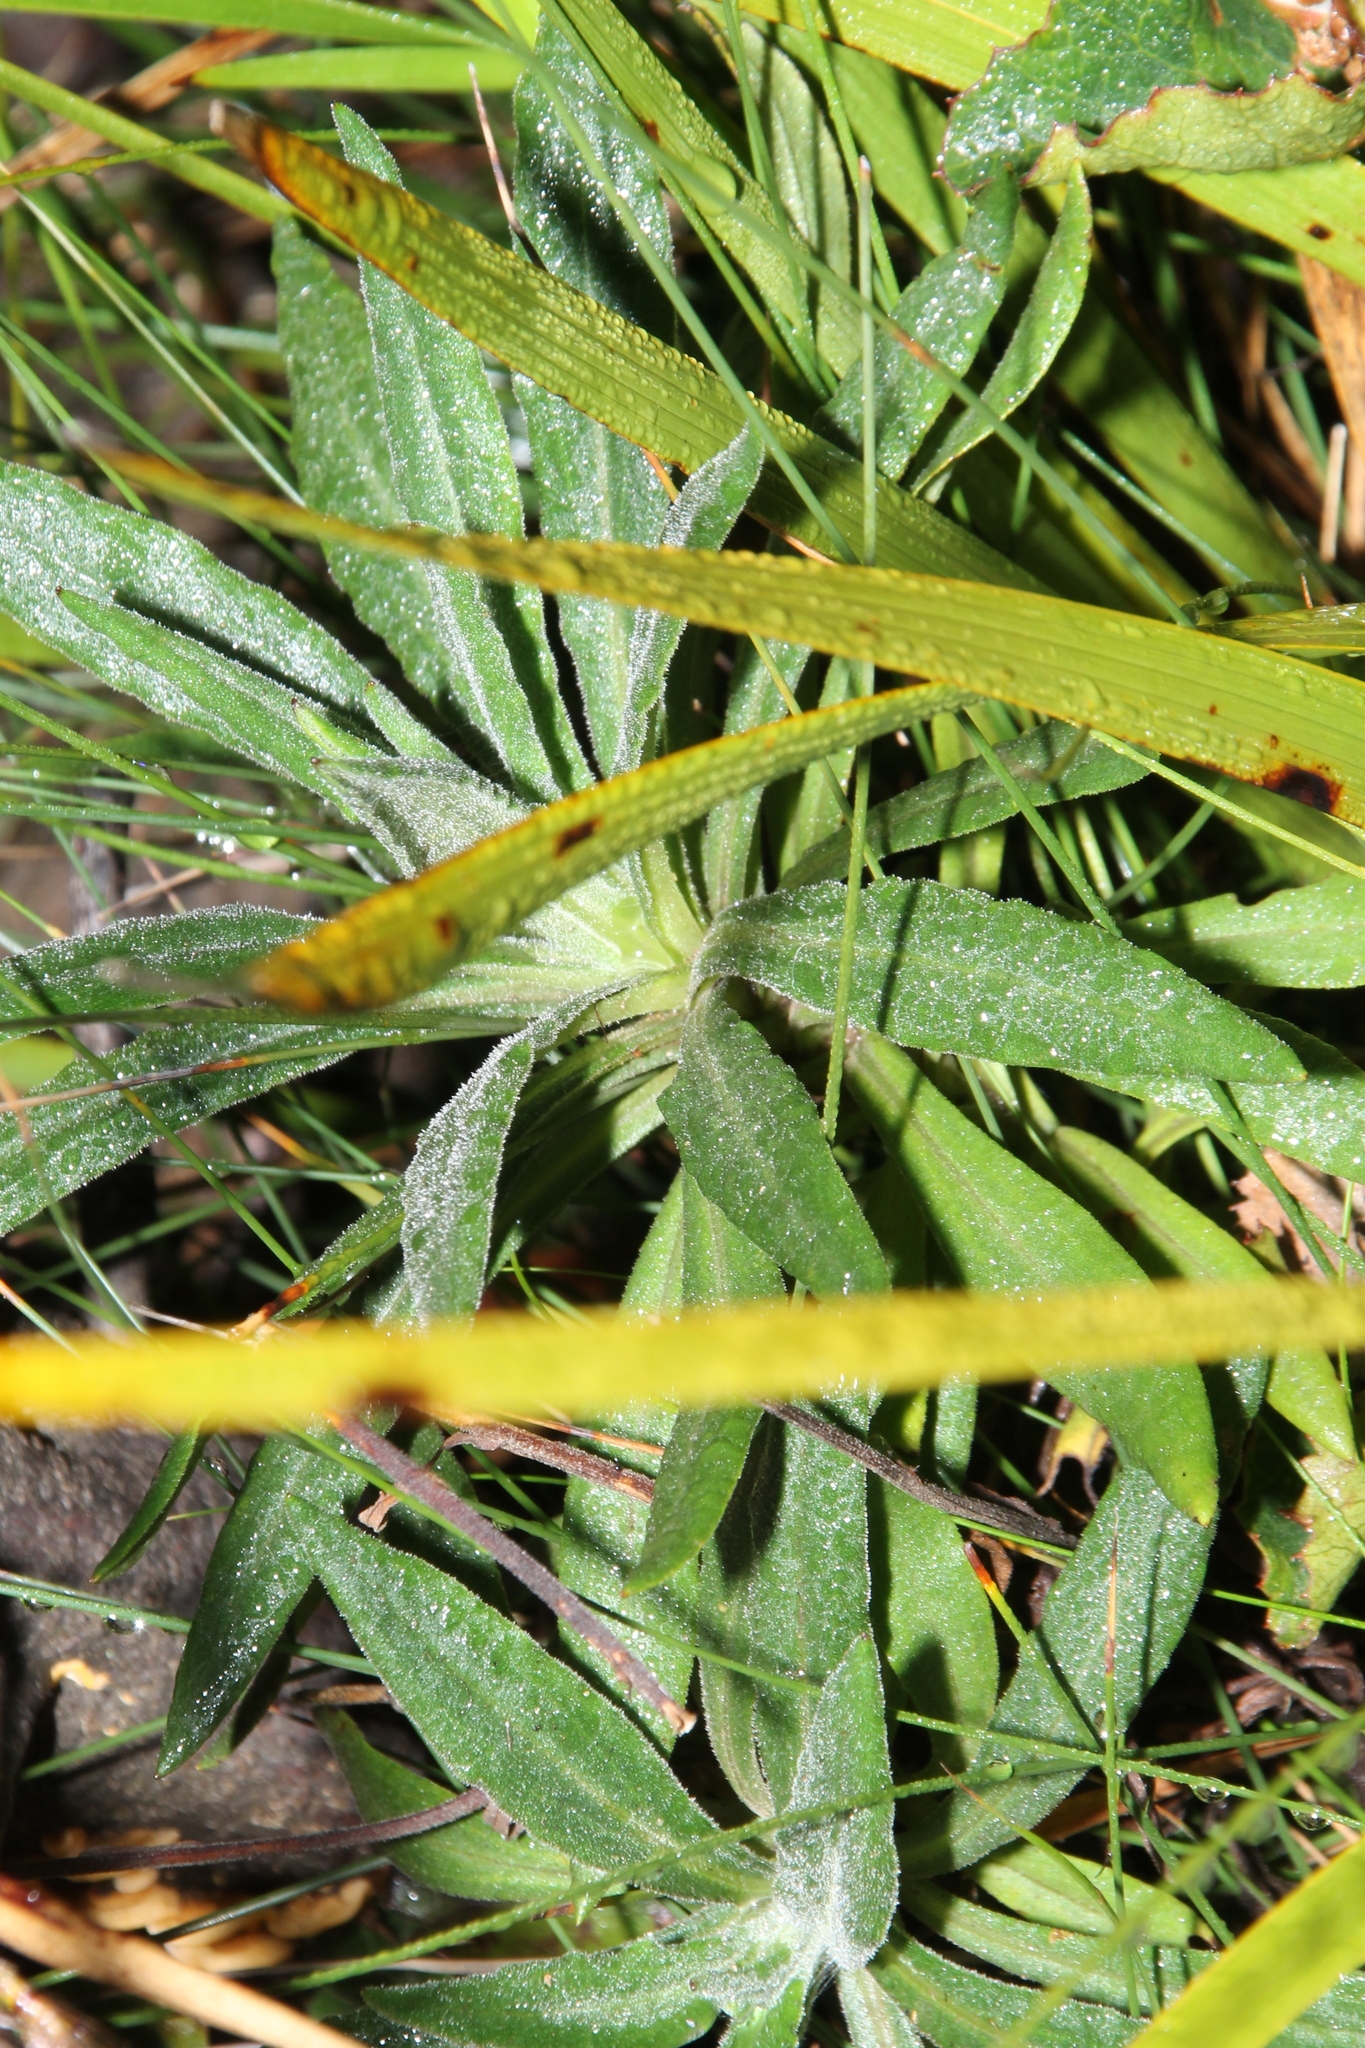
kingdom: Plantae
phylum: Tracheophyta
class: Magnoliopsida
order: Asterales
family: Asteraceae
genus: Xerochrysum
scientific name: Xerochrysum wilsonii
